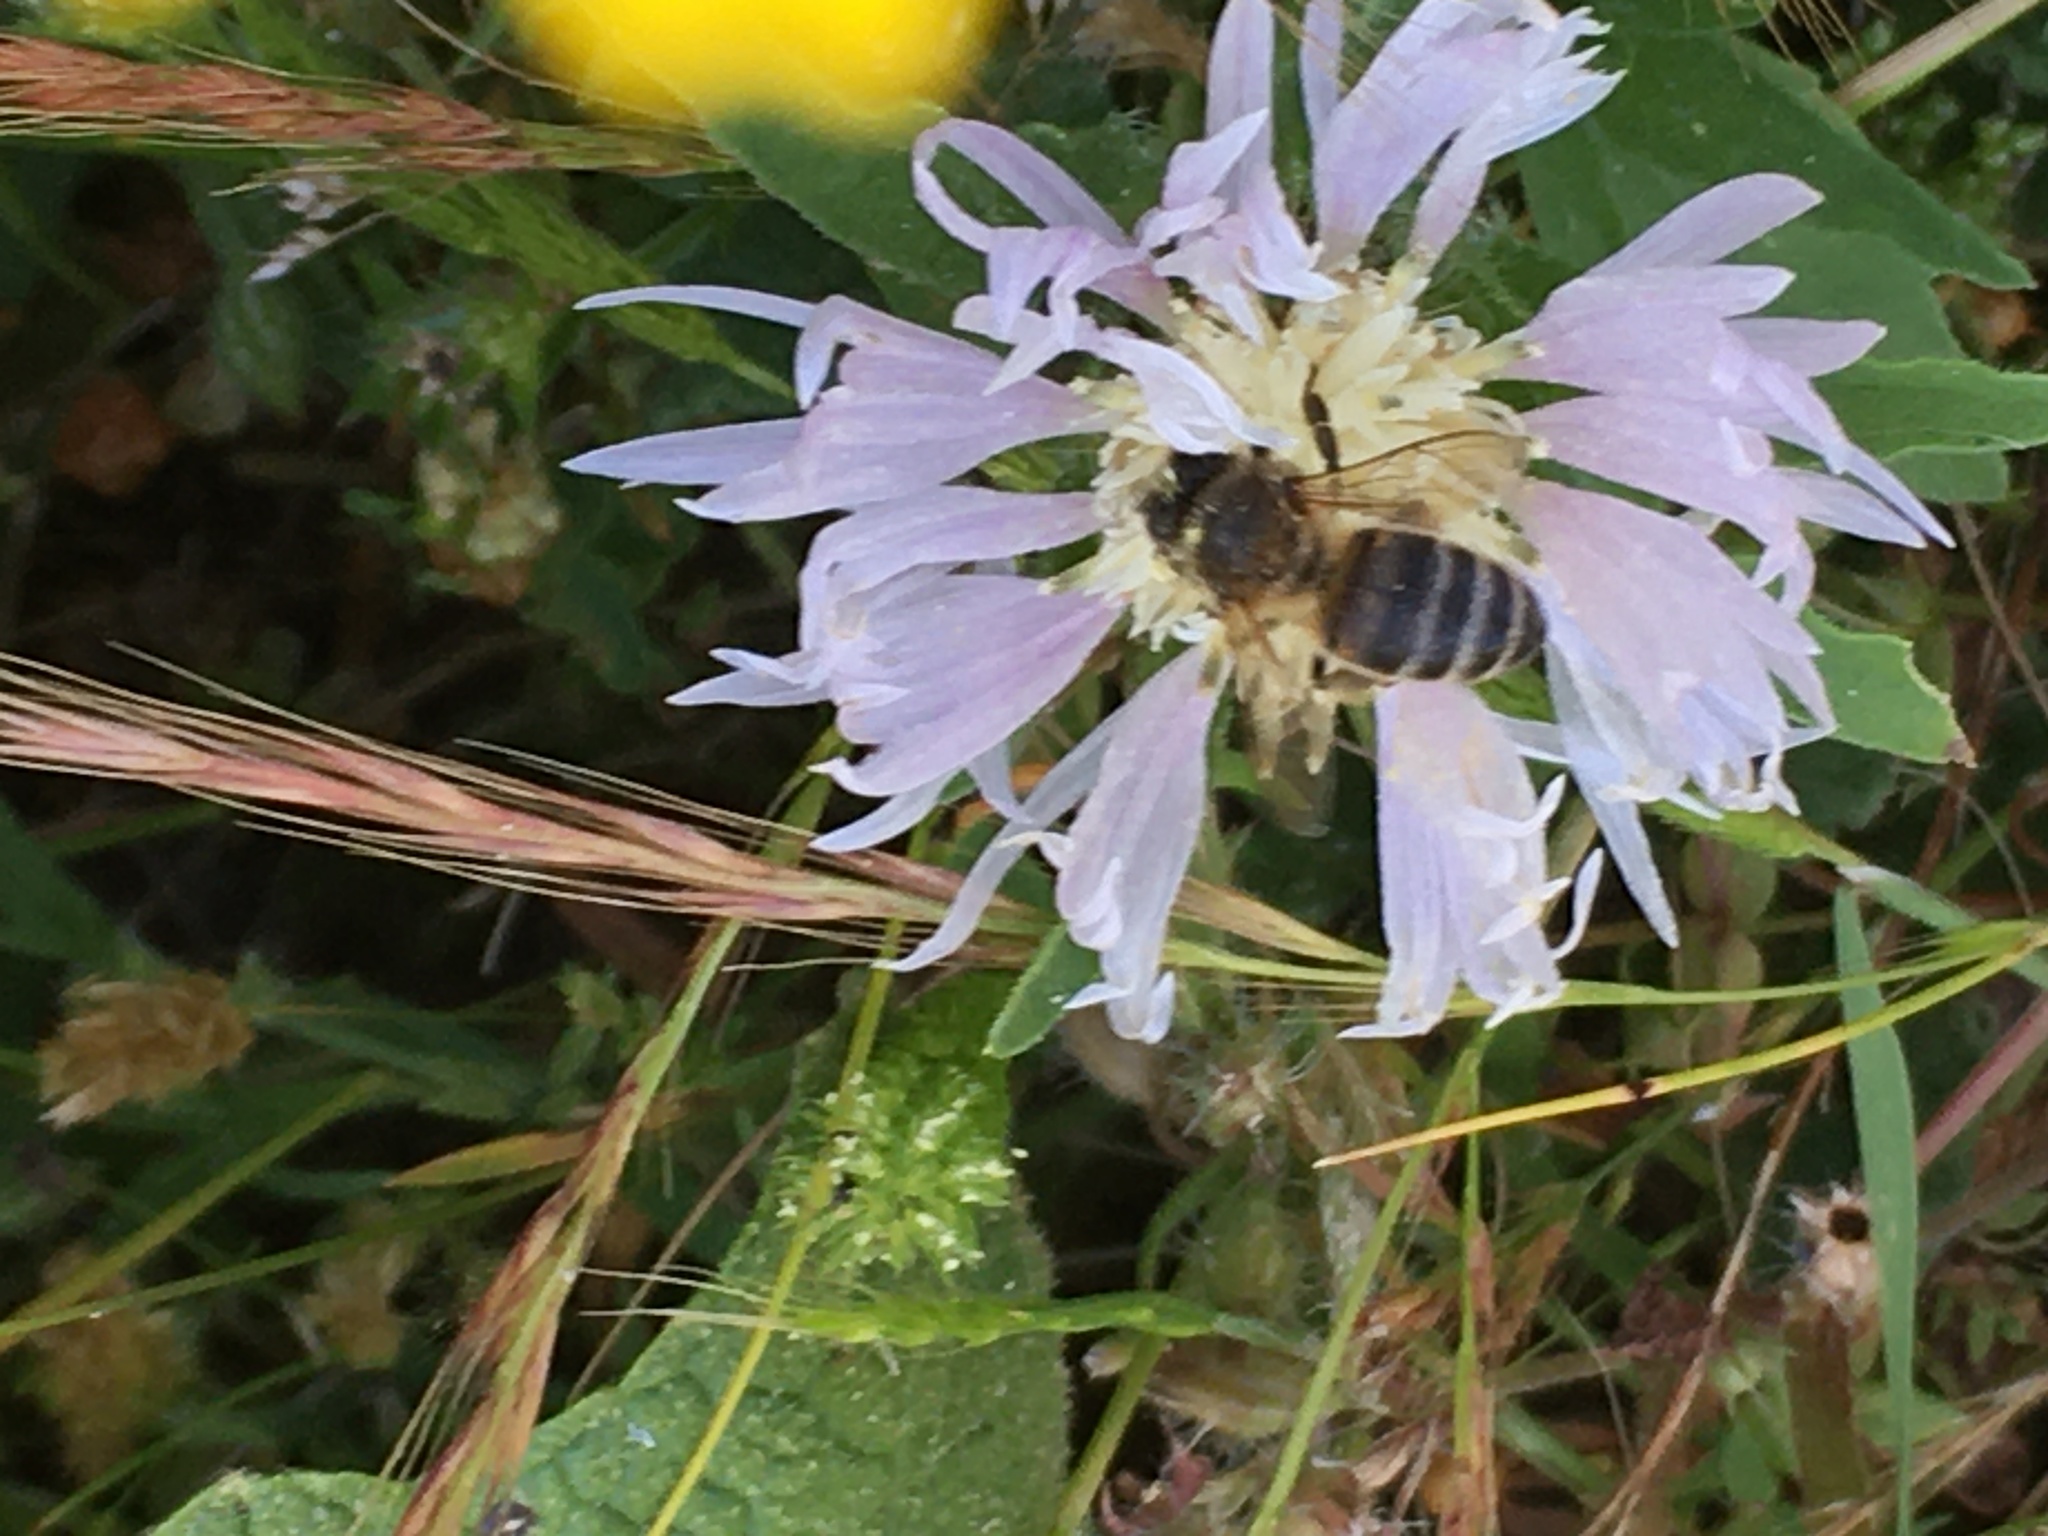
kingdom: Animalia
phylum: Arthropoda
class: Insecta
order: Hymenoptera
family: Apidae
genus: Apis
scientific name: Apis mellifera
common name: Honey bee
